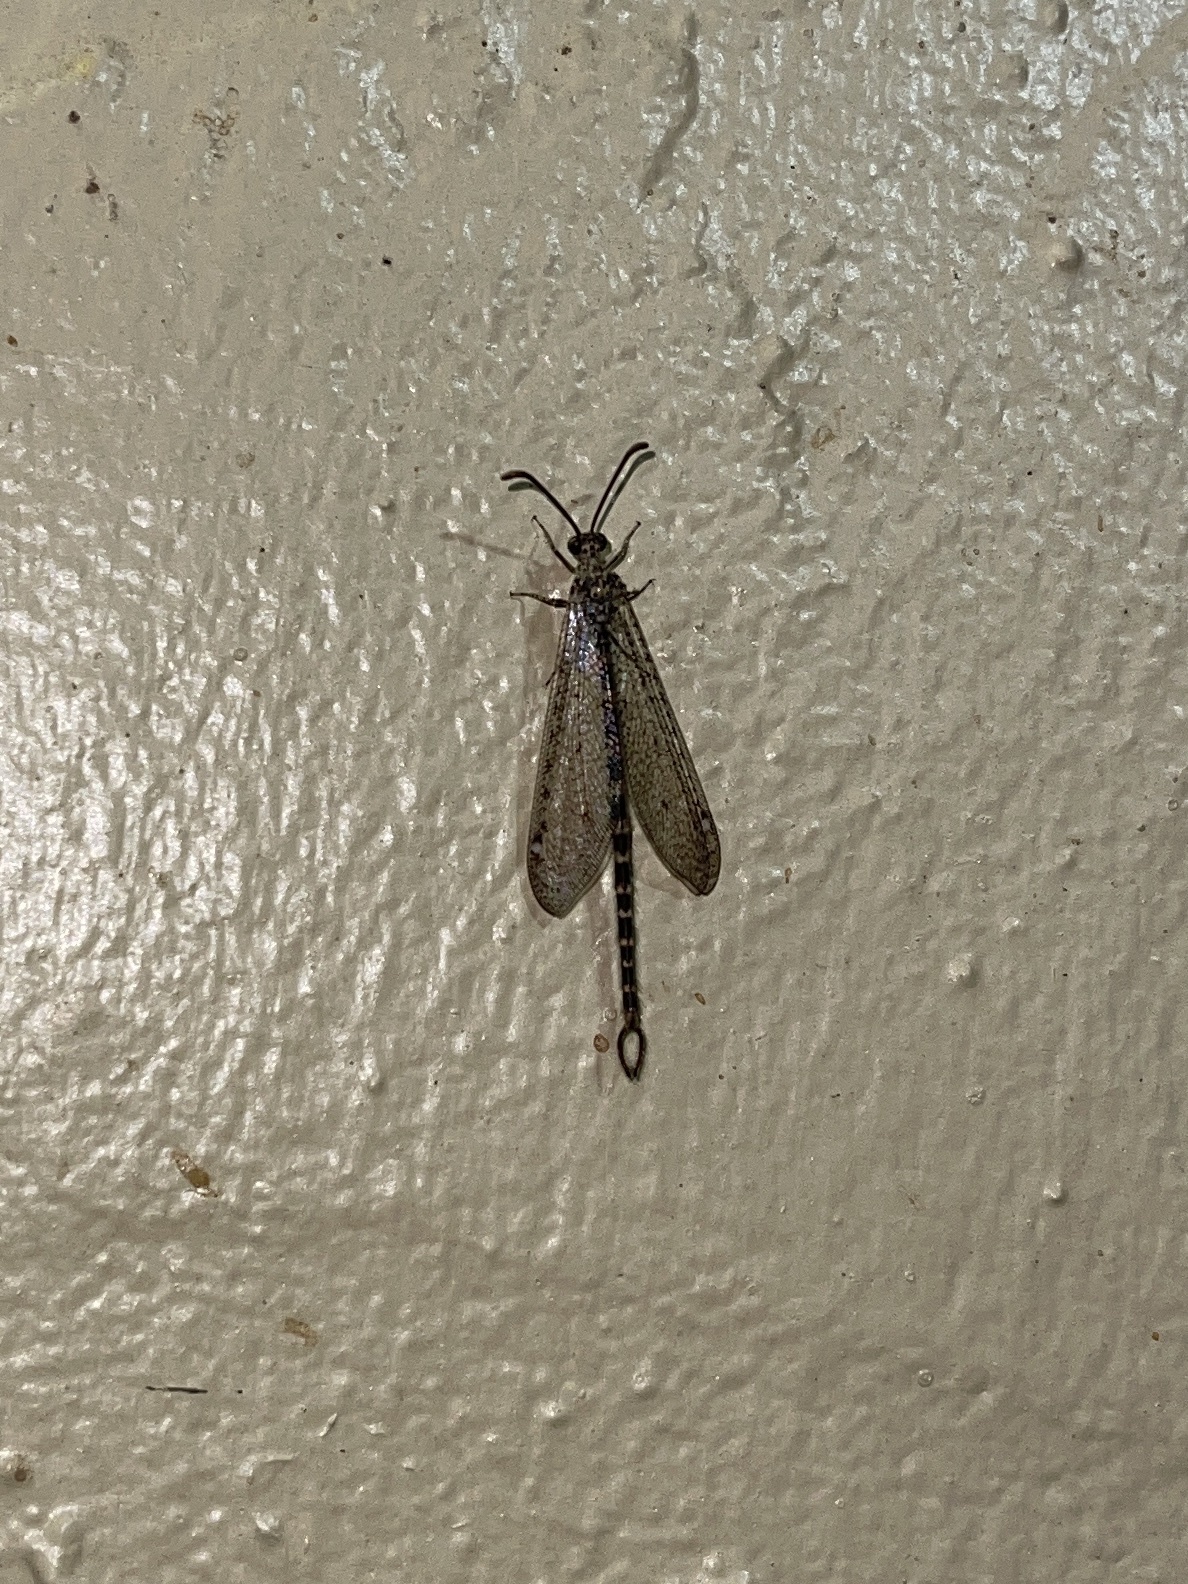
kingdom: Animalia
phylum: Arthropoda
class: Insecta
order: Neuroptera
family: Myrmeleontidae
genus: Brachynemurus
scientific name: Brachynemurus sackeni
